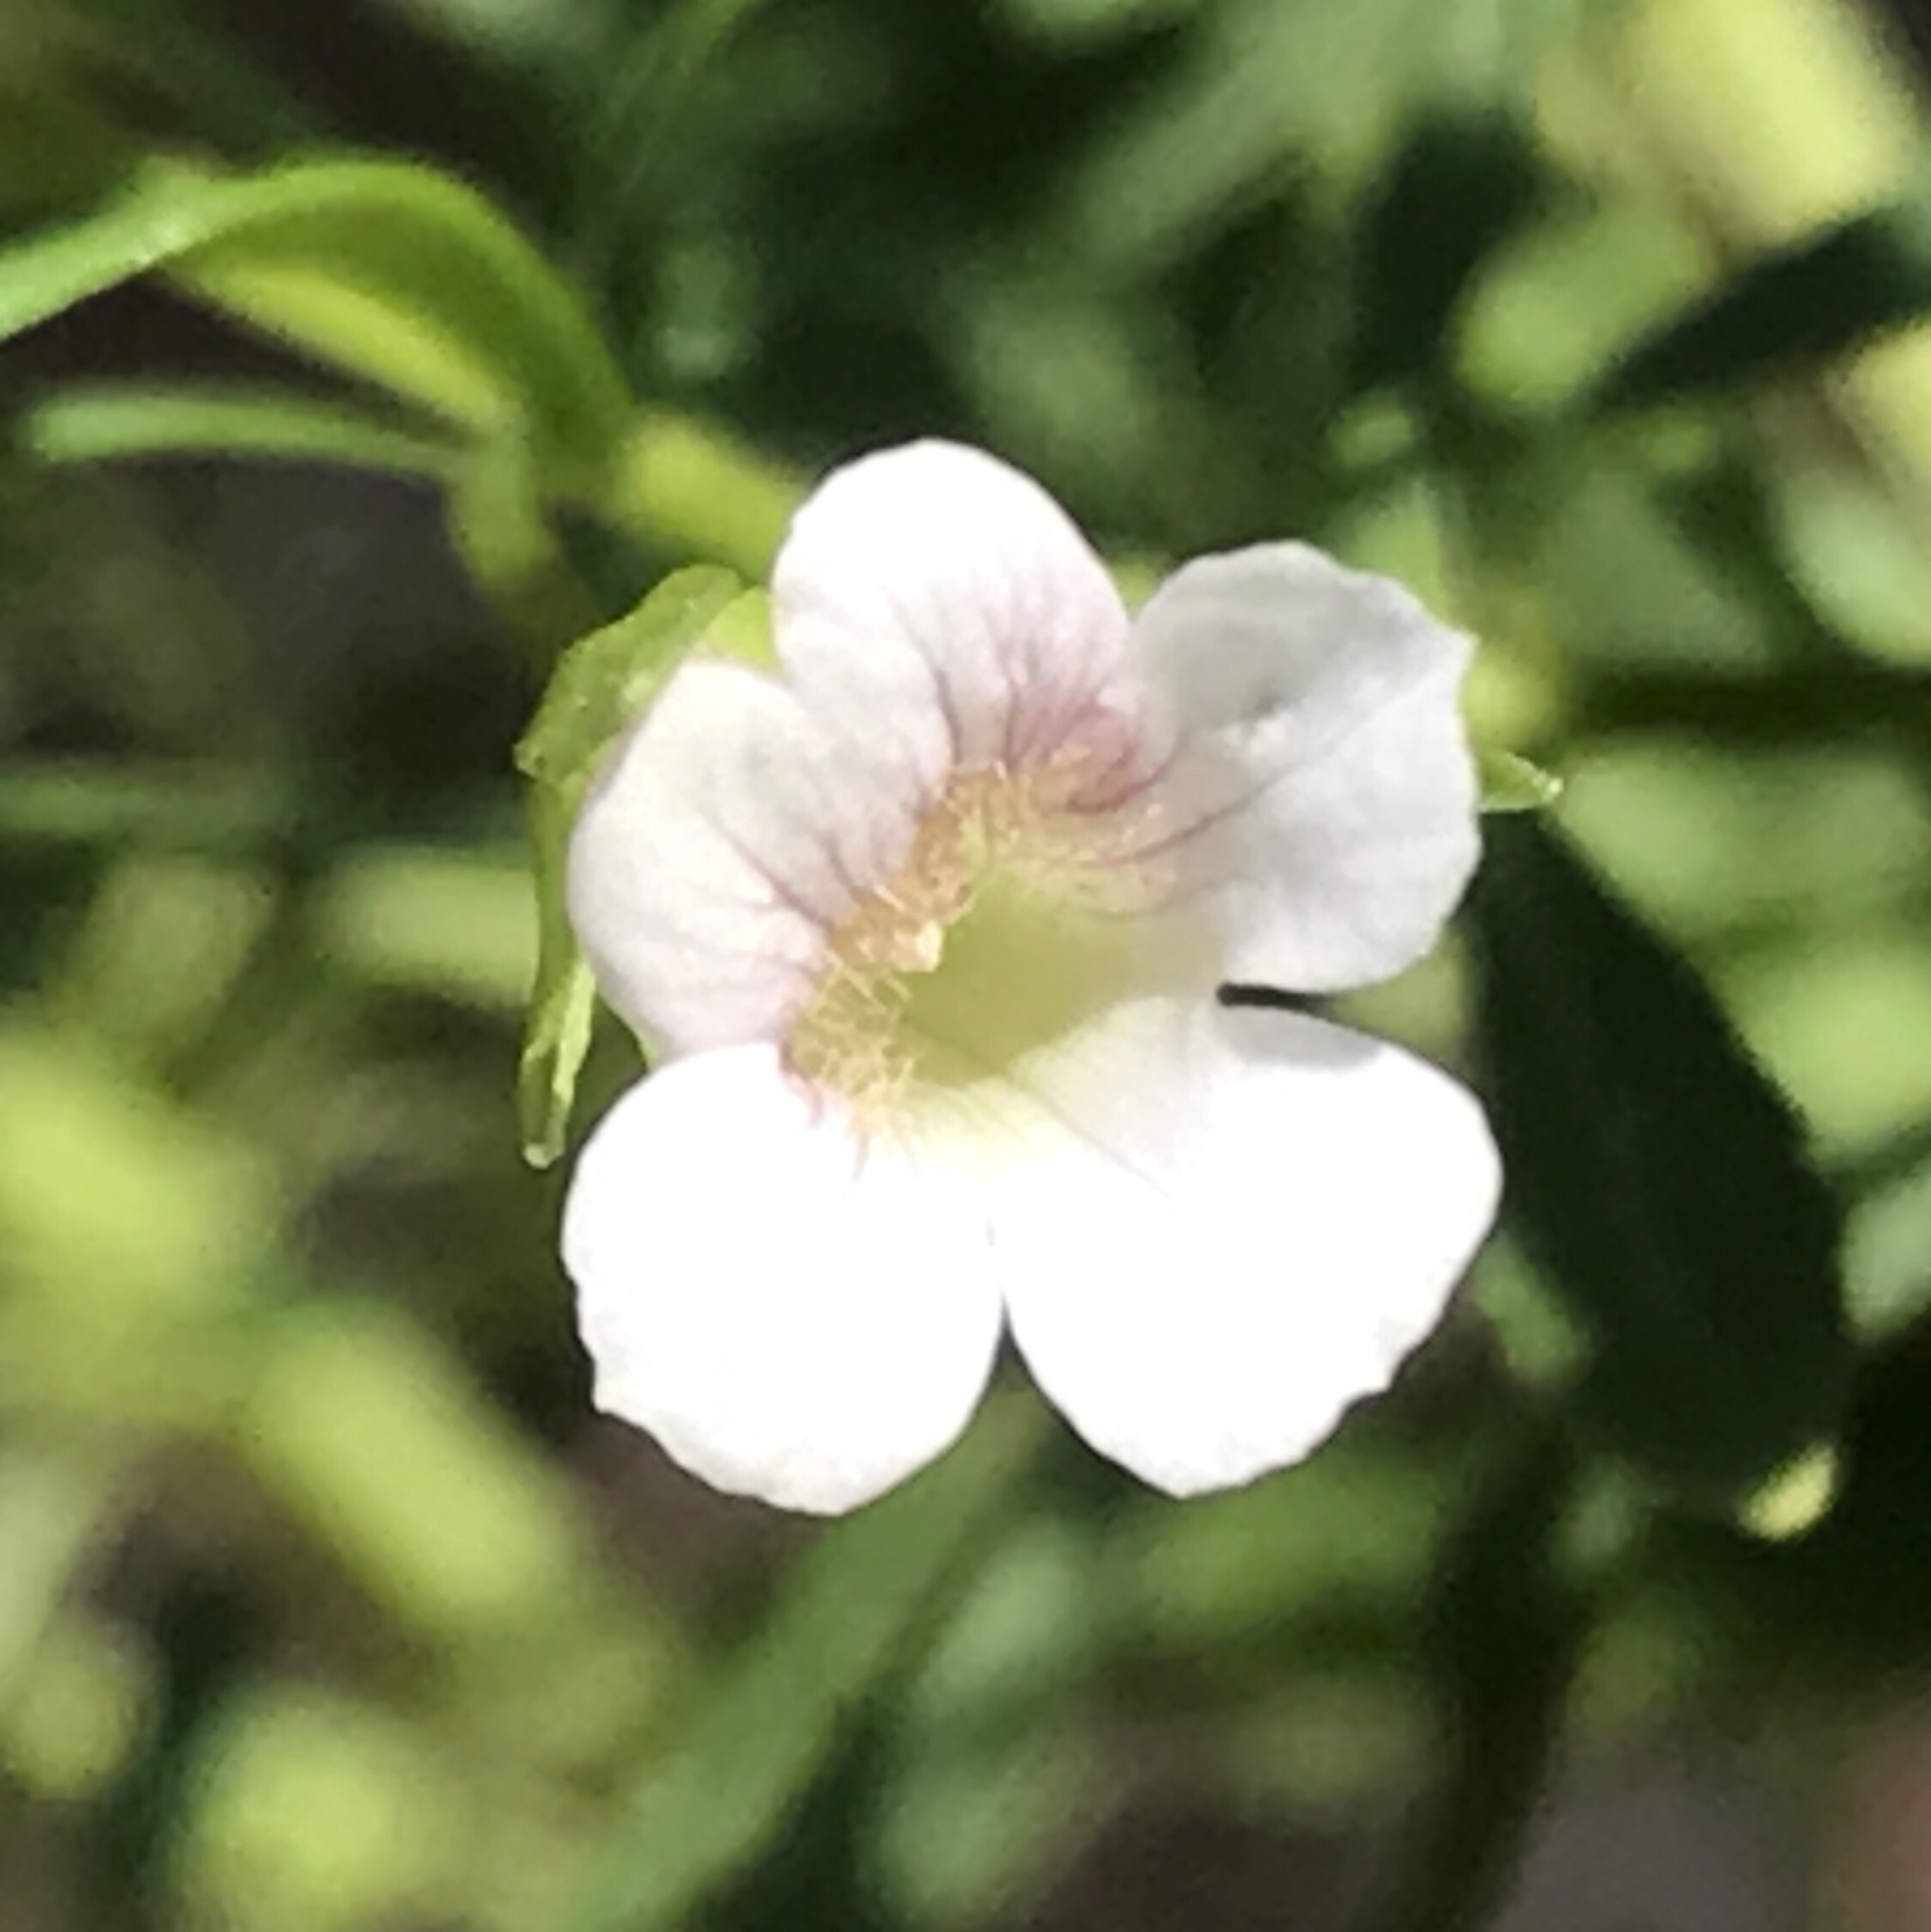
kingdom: Plantae
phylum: Tracheophyta
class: Magnoliopsida
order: Lamiales
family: Plantaginaceae
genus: Mecardonia
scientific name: Mecardonia acuminata
